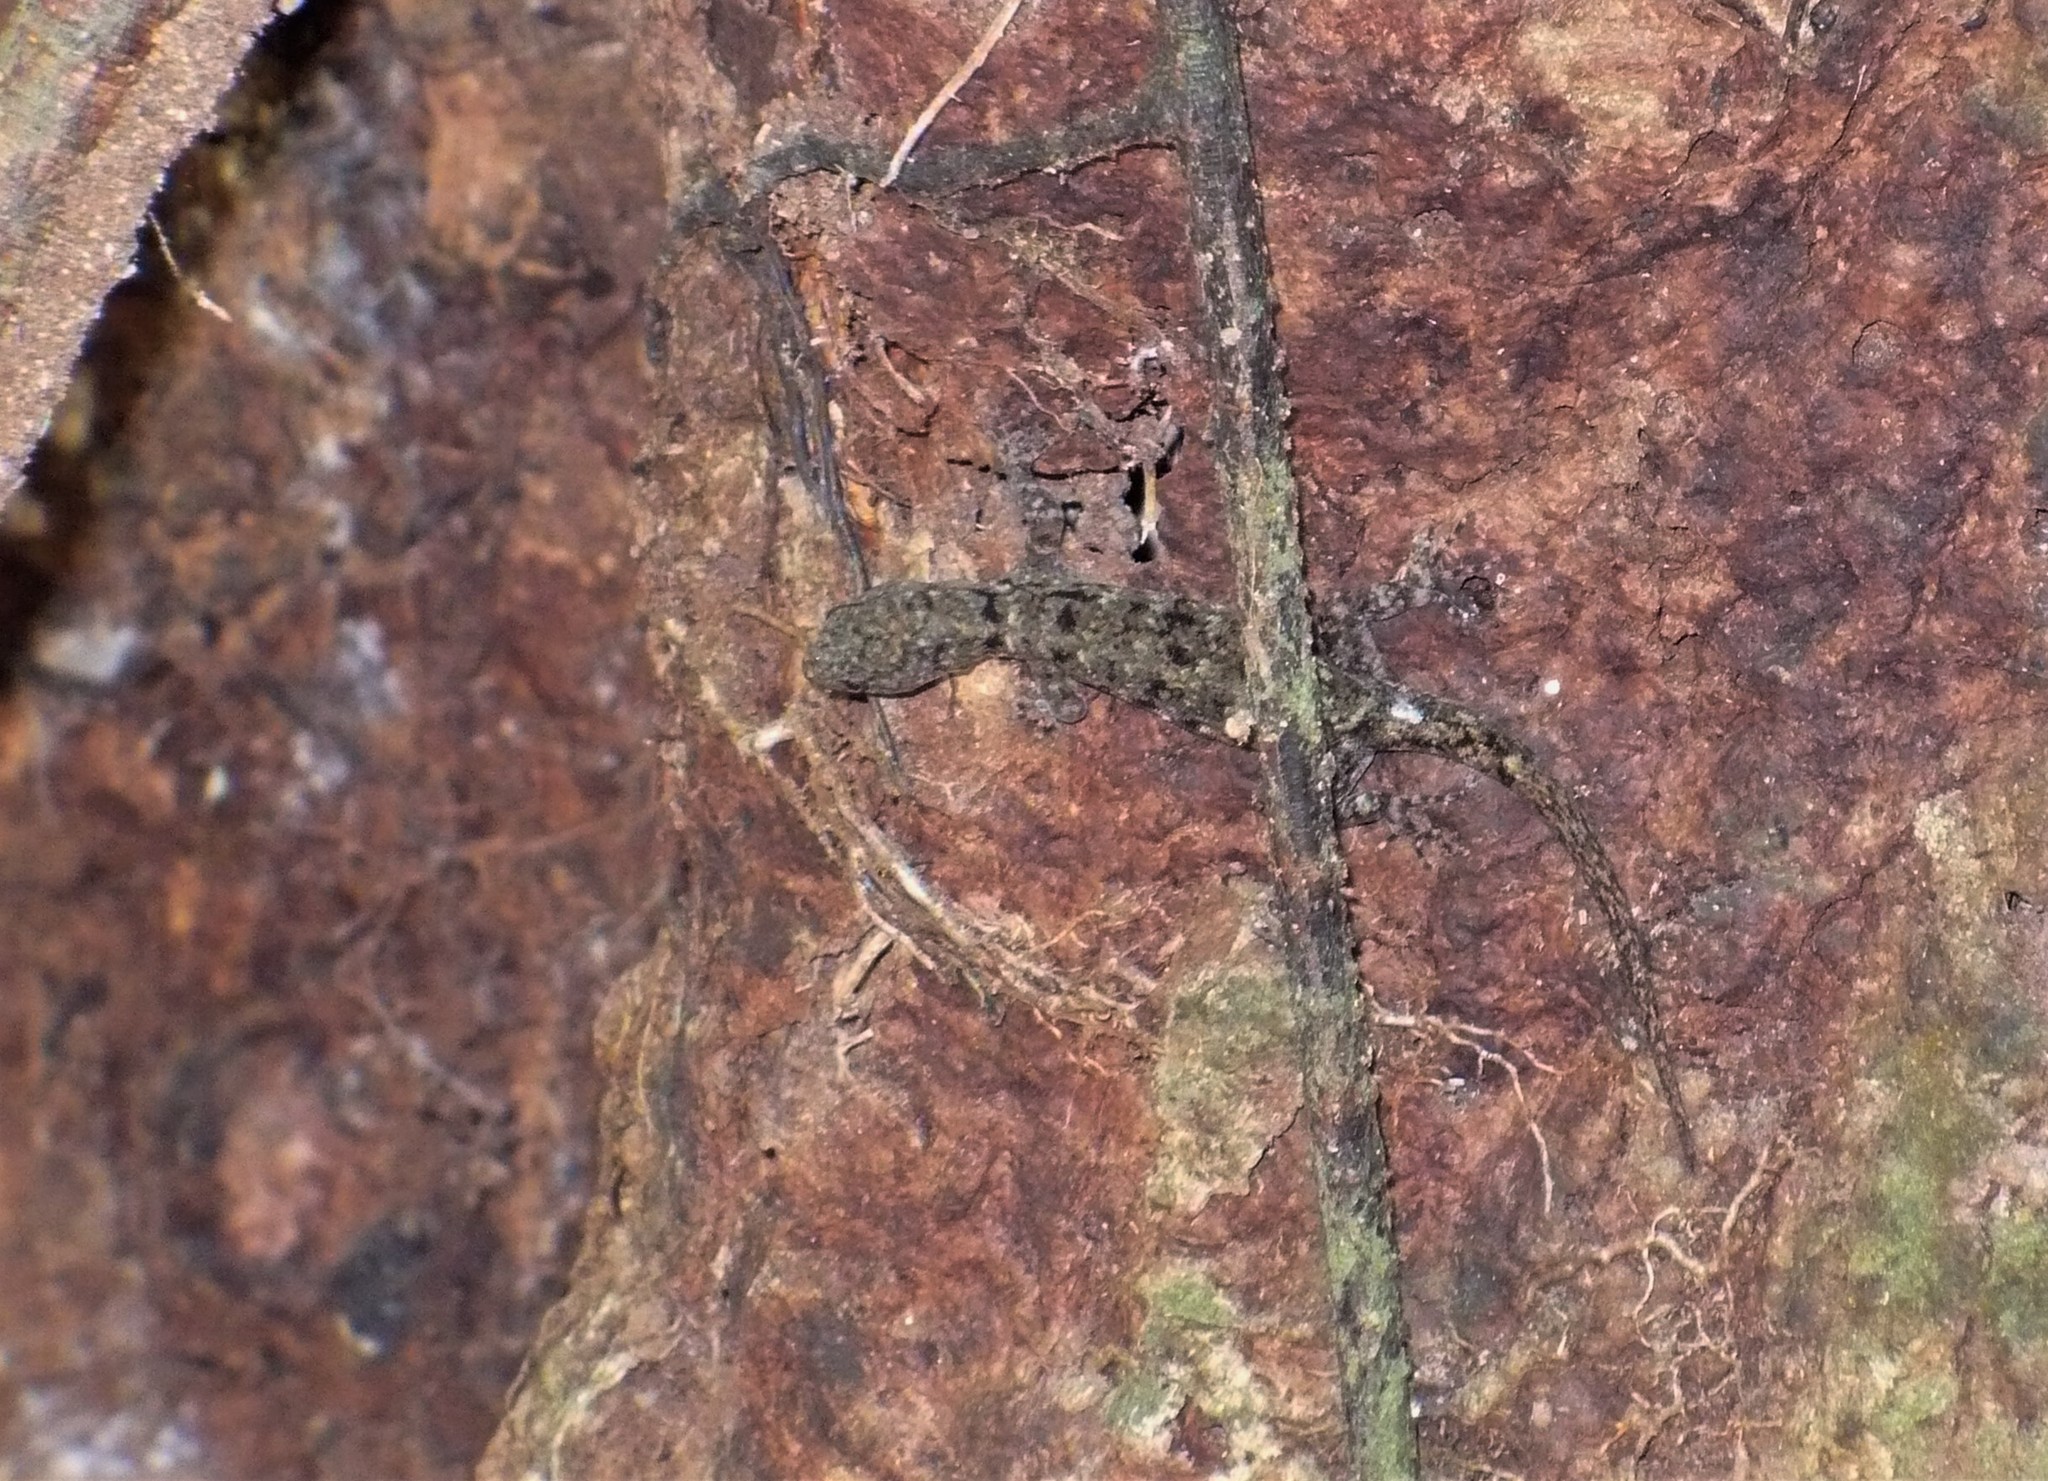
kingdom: Animalia
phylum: Chordata
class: Squamata
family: Sphaerodactylidae
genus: Gonatodes
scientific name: Gonatodes albogularis
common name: Yellow-headed gecko
